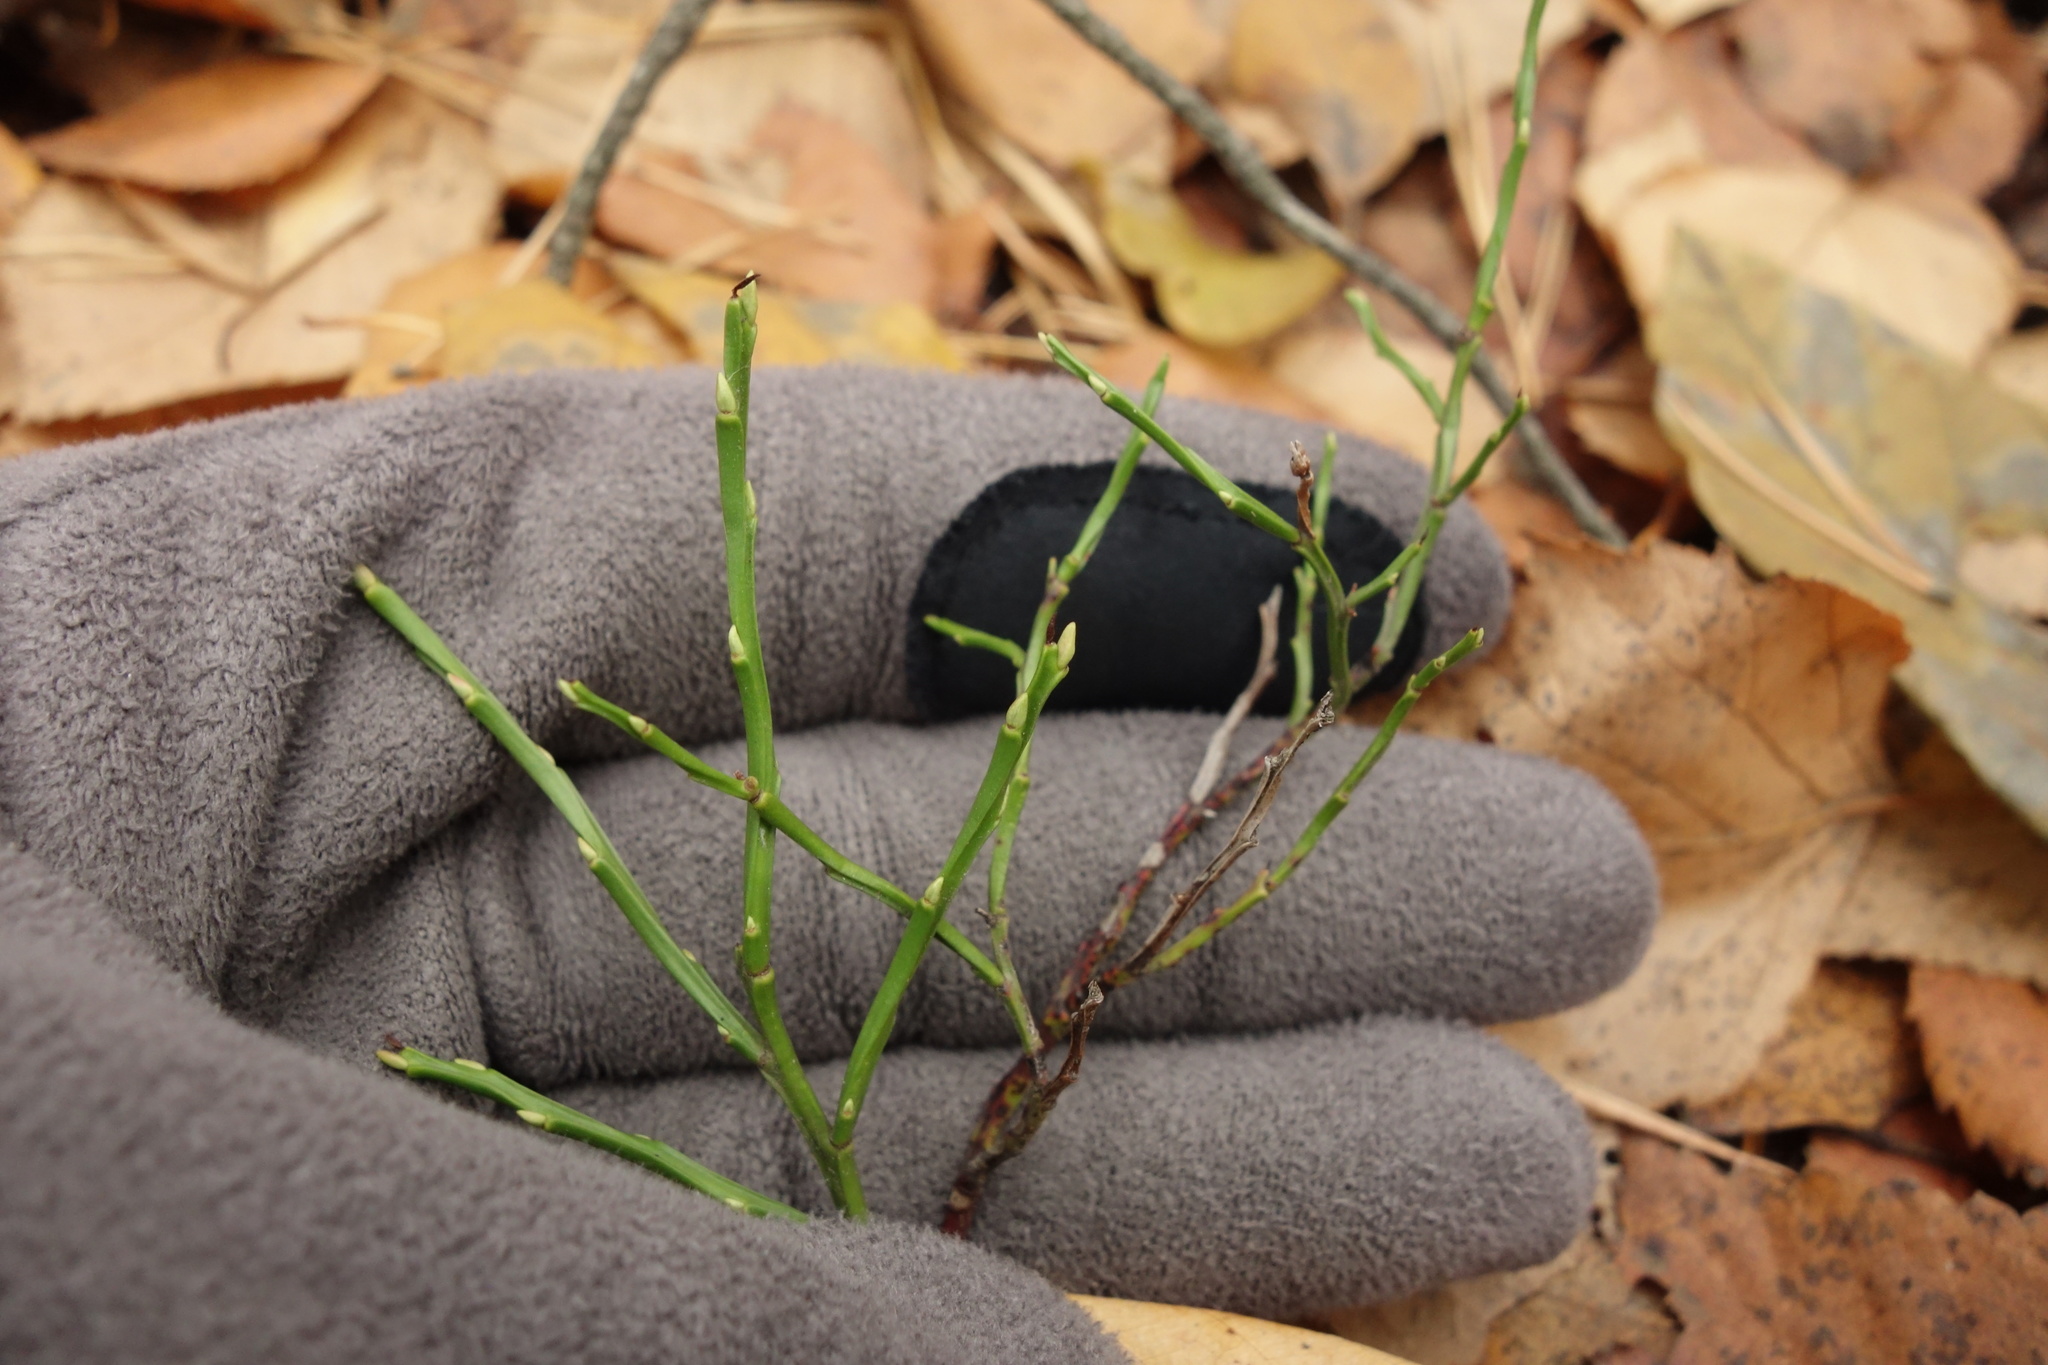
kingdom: Plantae
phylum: Tracheophyta
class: Magnoliopsida
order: Ericales
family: Ericaceae
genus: Vaccinium
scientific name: Vaccinium myrtillus
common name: Bilberry
